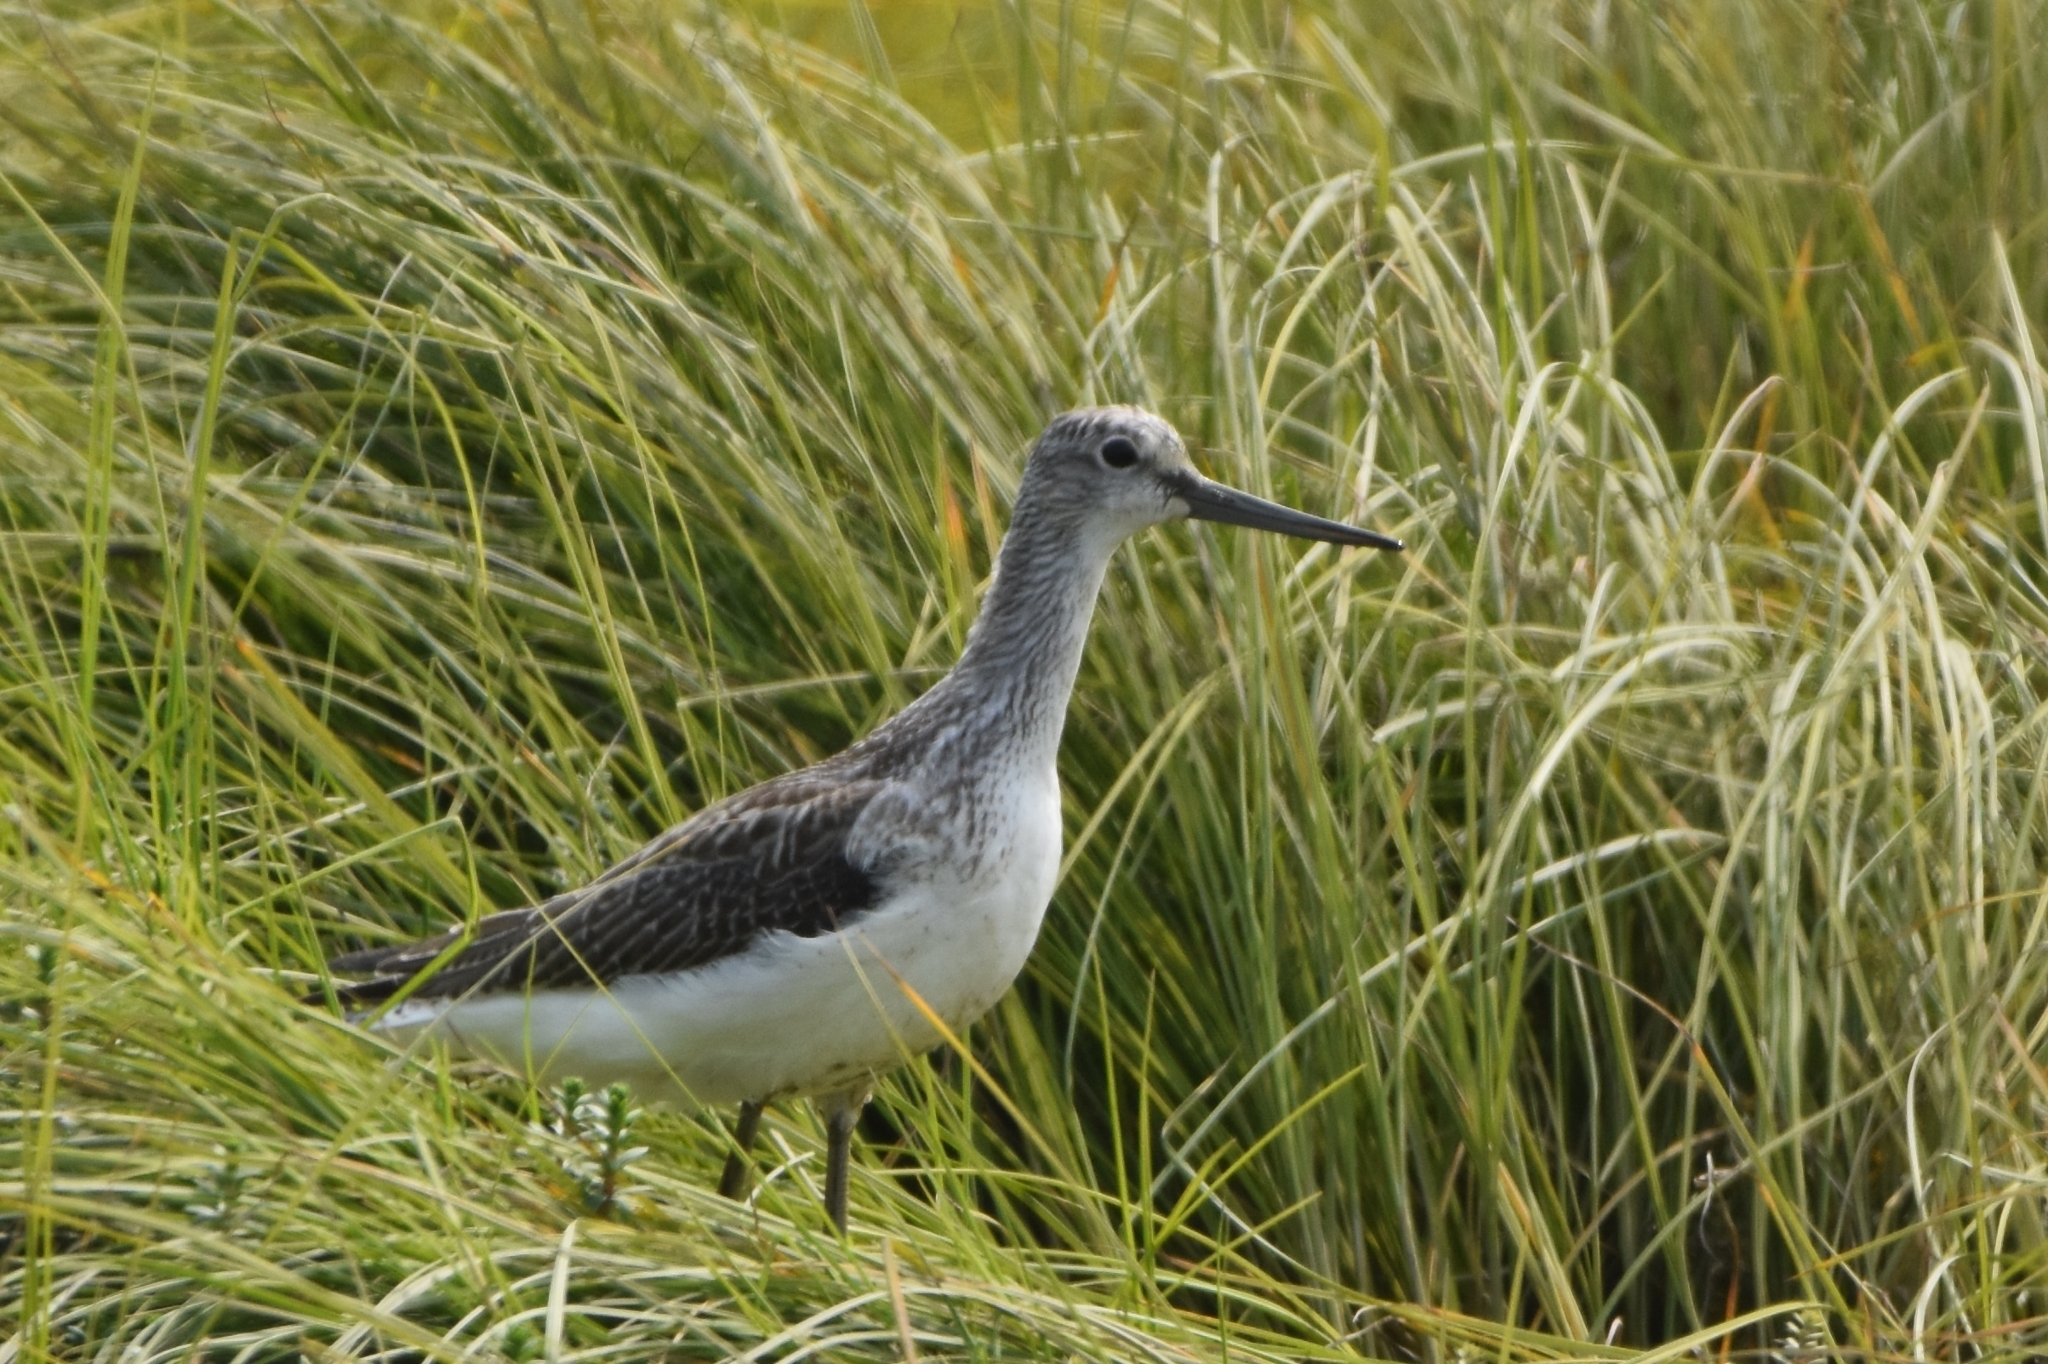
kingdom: Animalia
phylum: Chordata
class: Aves
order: Charadriiformes
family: Scolopacidae
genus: Tringa
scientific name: Tringa nebularia
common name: Common greenshank
